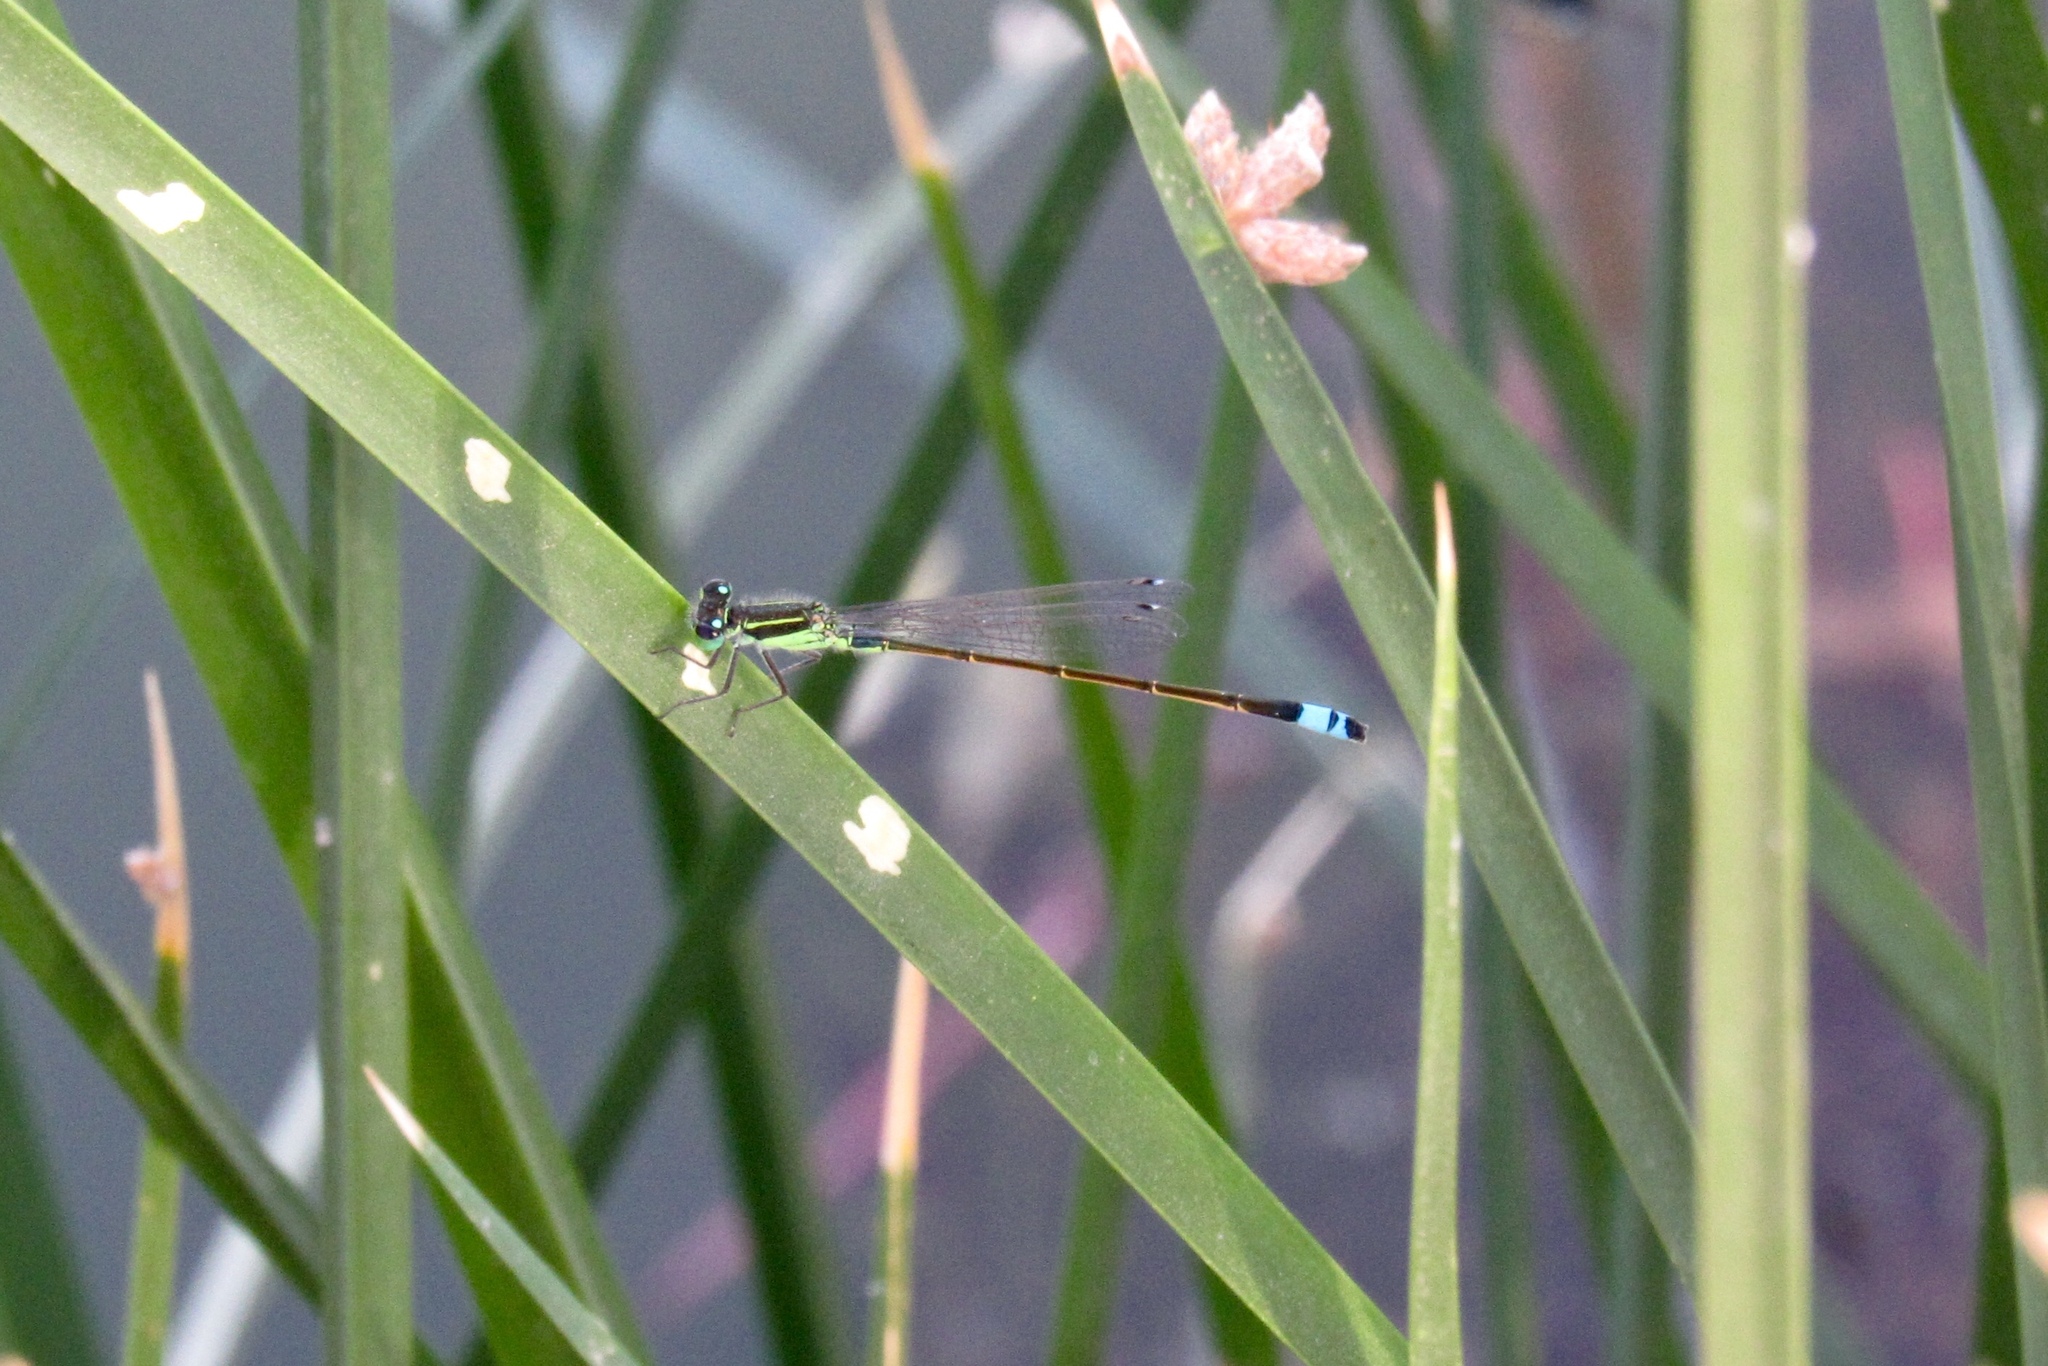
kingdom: Animalia
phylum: Arthropoda
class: Insecta
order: Odonata
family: Coenagrionidae
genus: Ischnura
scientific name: Ischnura ramburii
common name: Rambur's forktail
